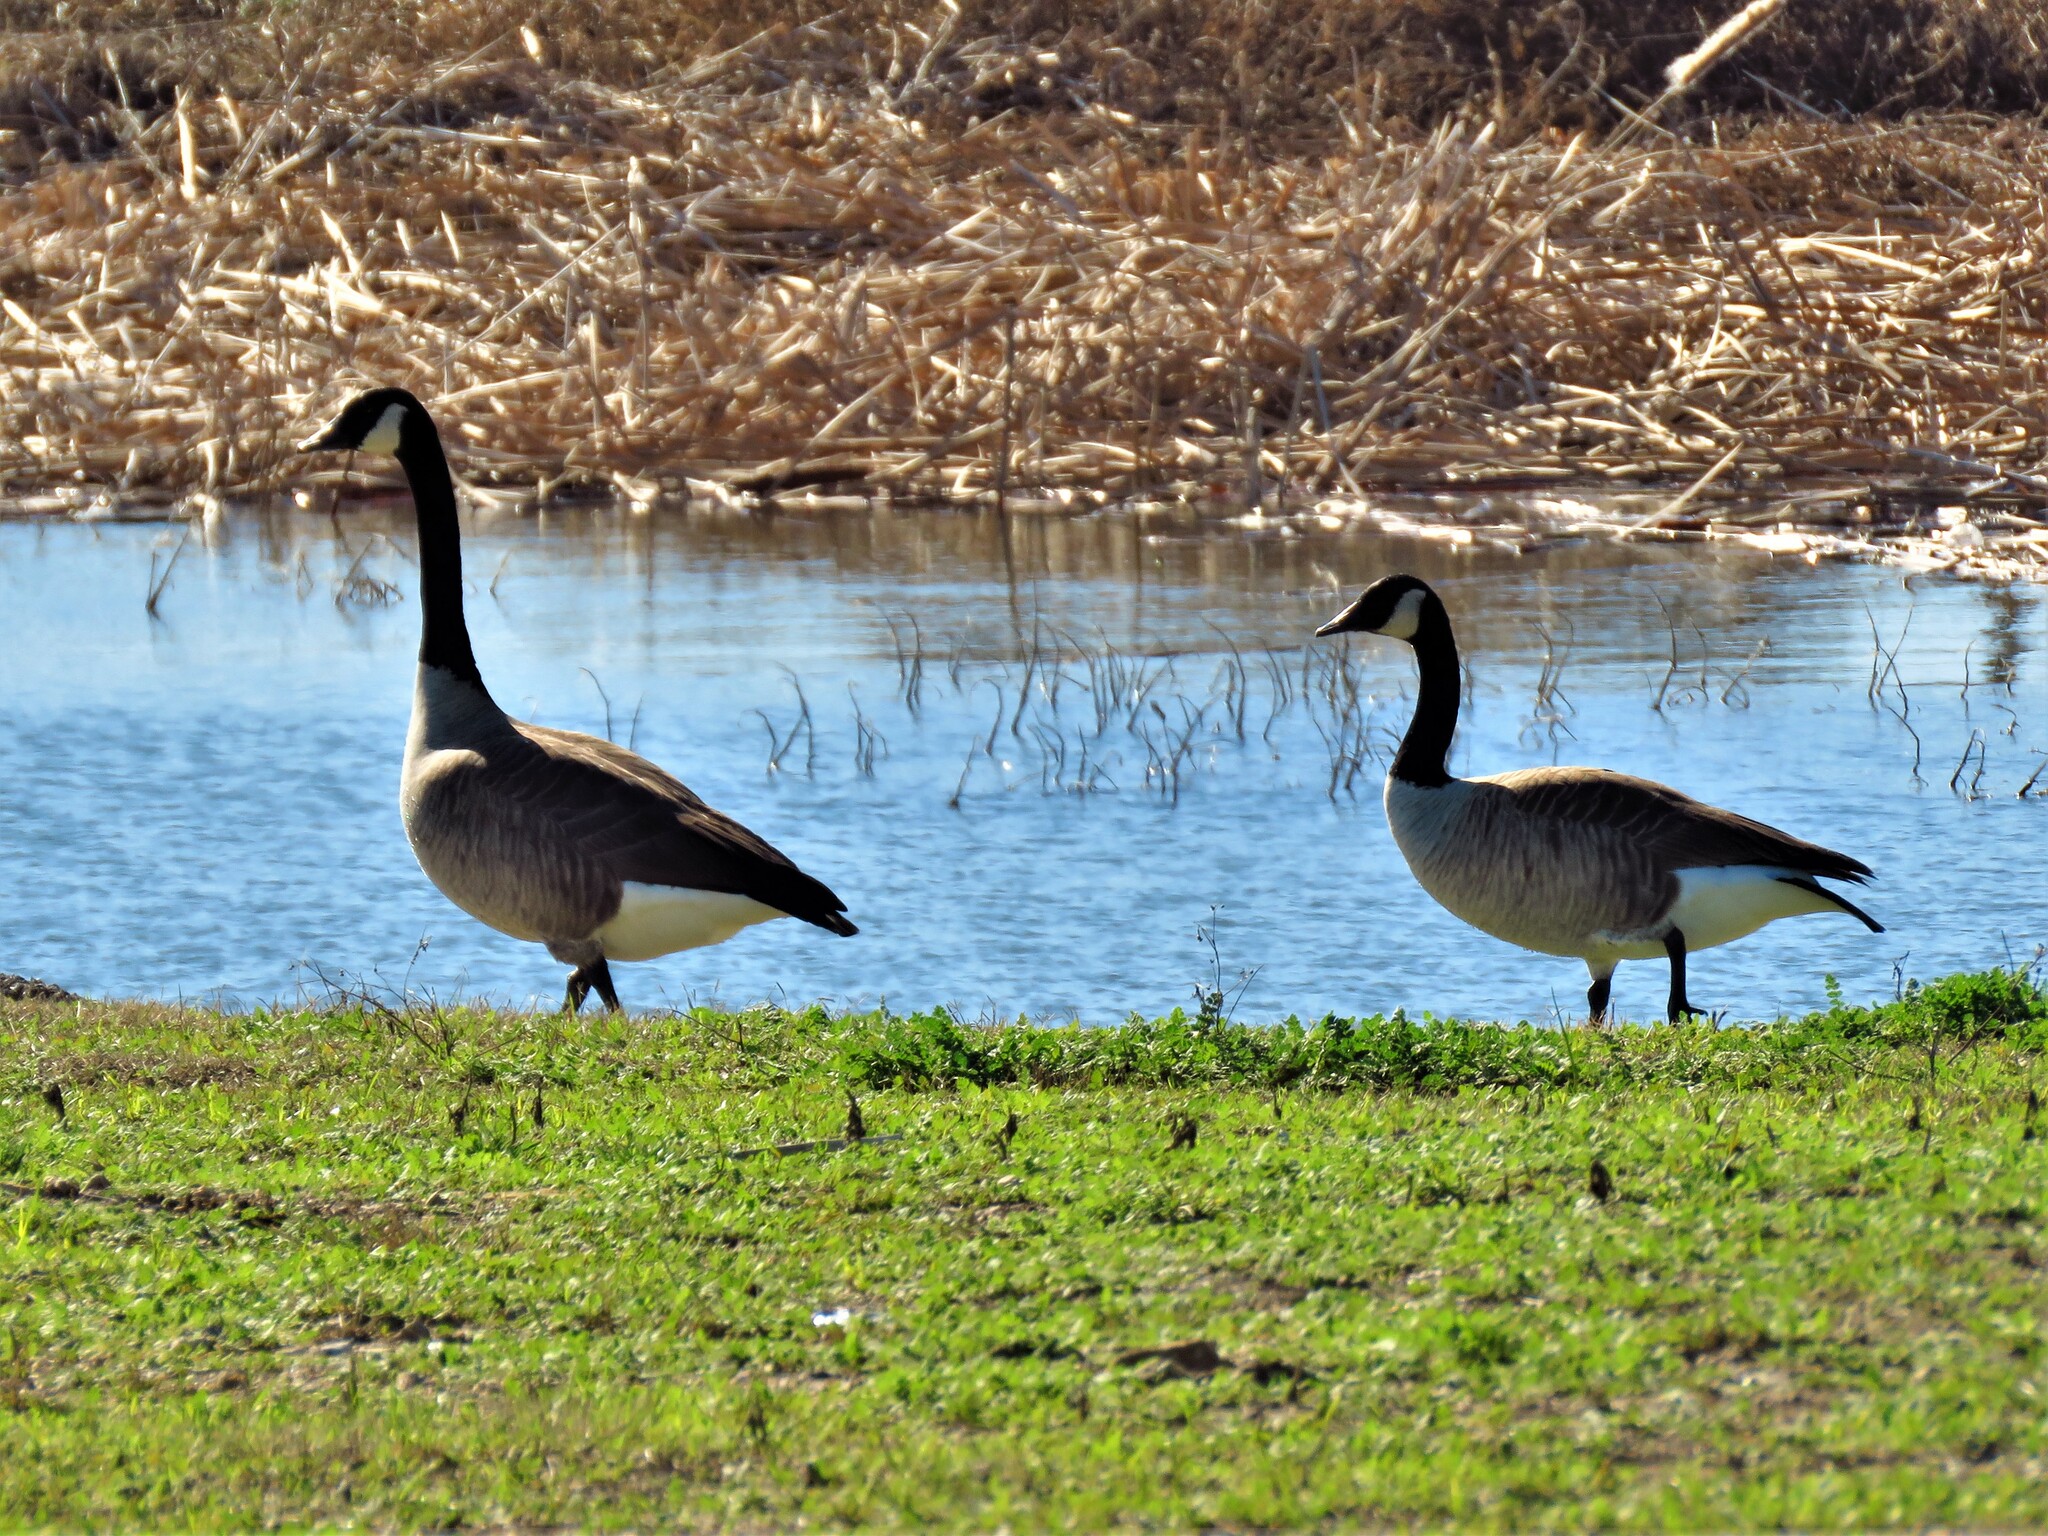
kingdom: Animalia
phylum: Chordata
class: Aves
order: Anseriformes
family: Anatidae
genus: Branta
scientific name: Branta canadensis
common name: Canada goose
